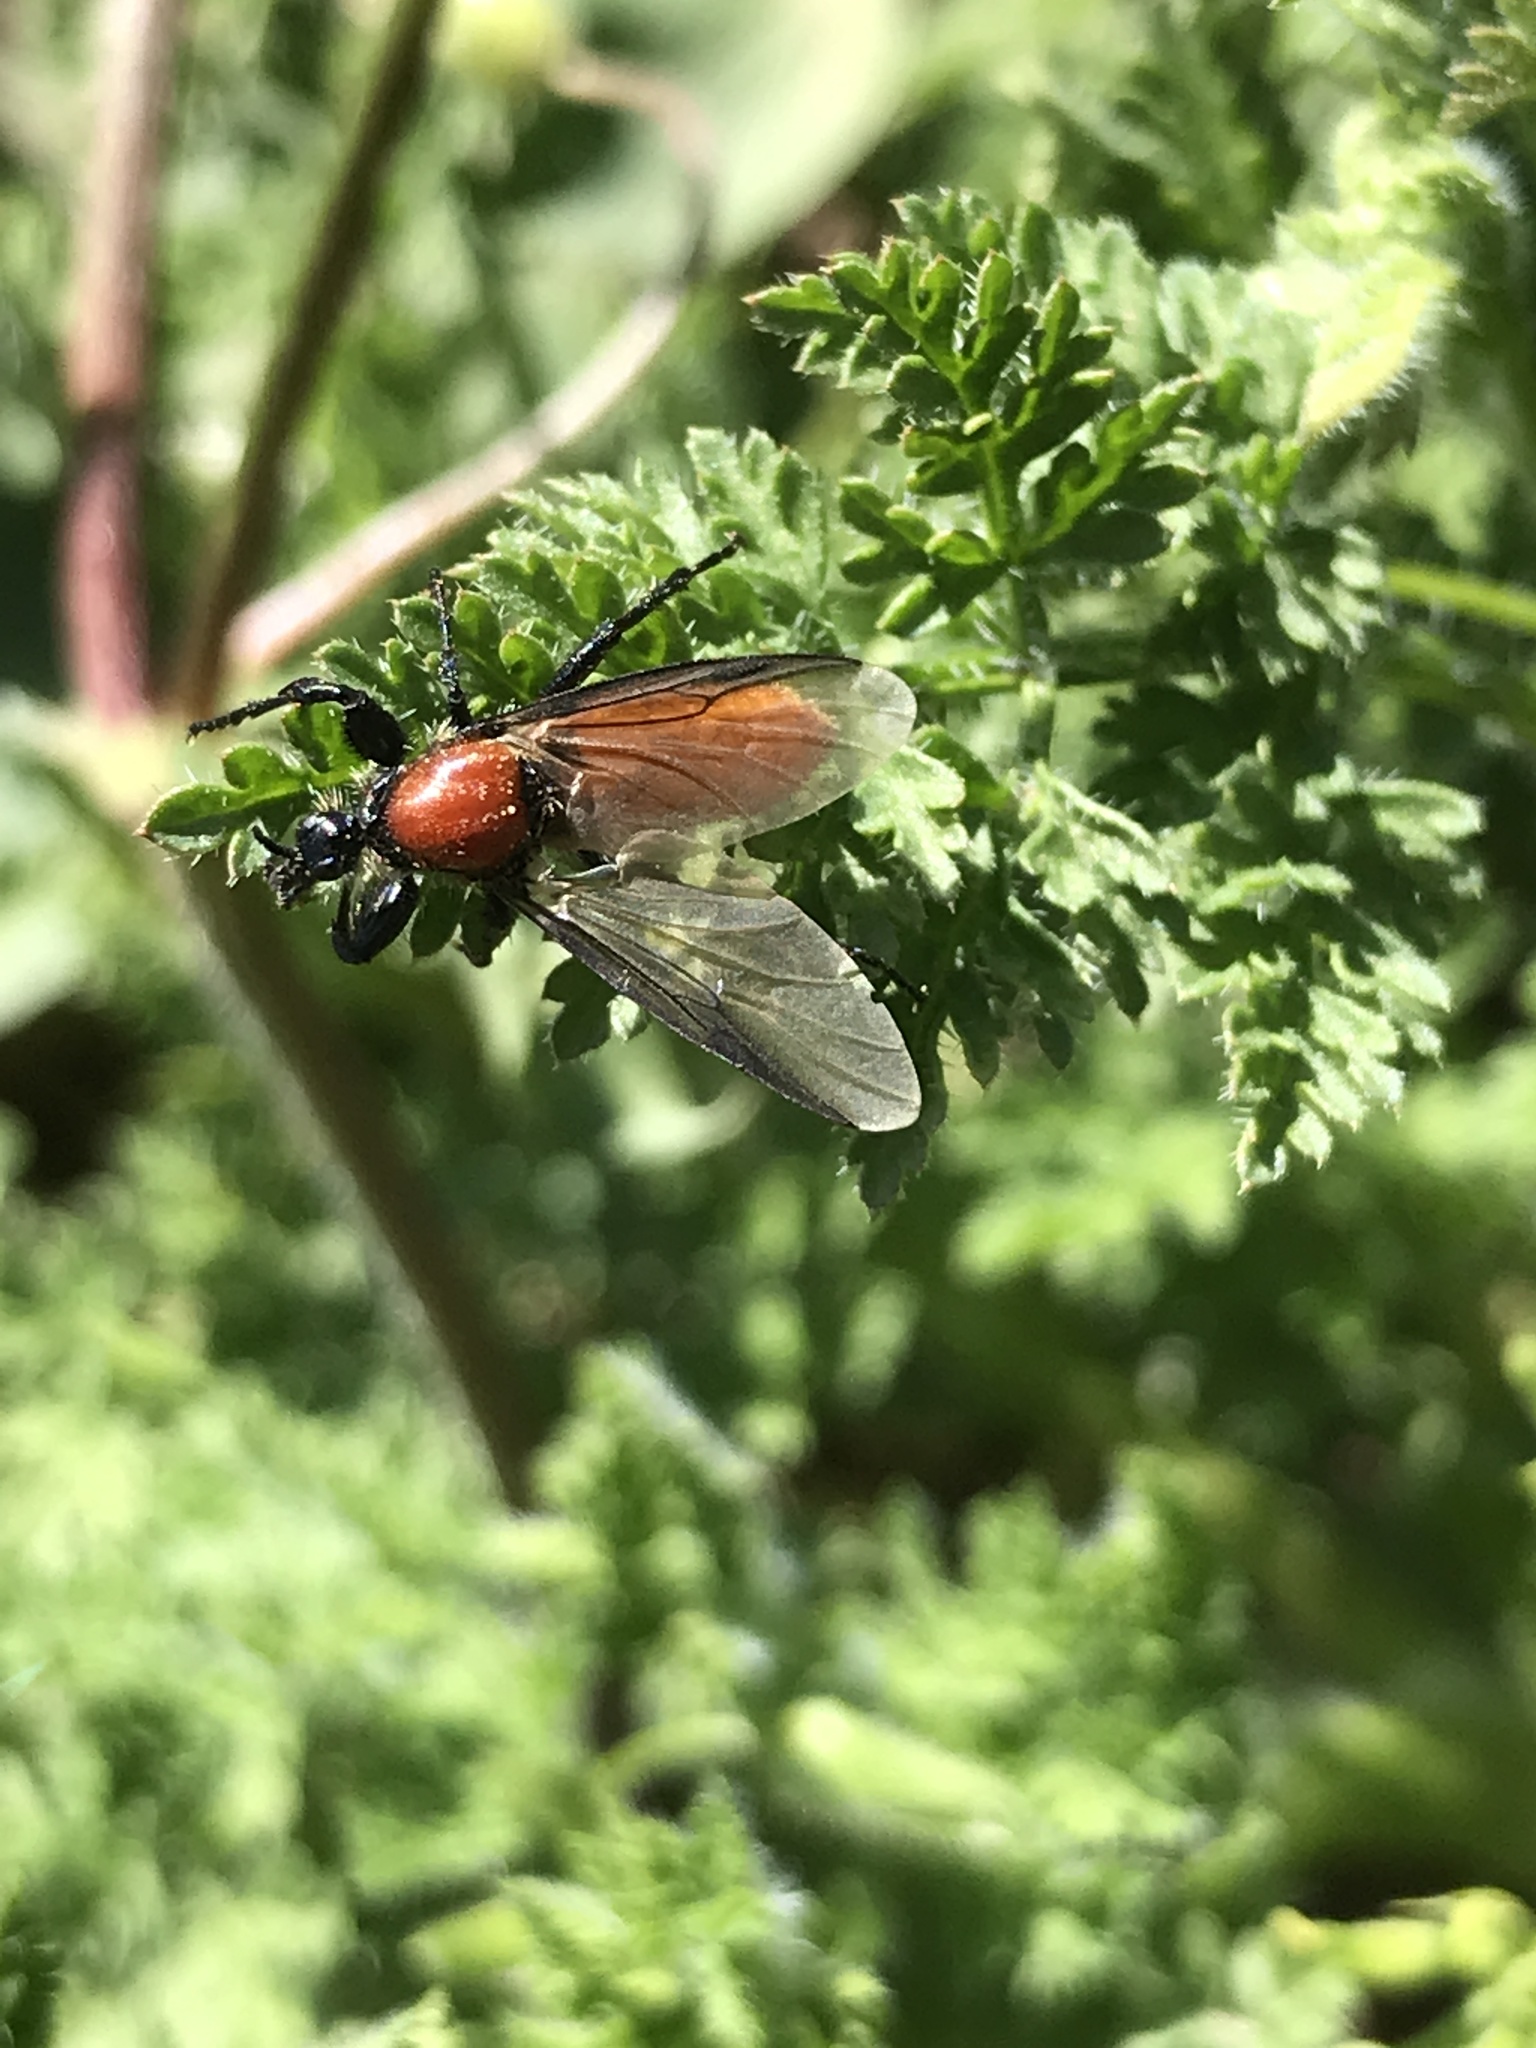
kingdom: Animalia
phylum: Arthropoda
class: Insecta
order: Diptera
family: Bibionidae
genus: Bibio
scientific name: Bibio hortulanus
